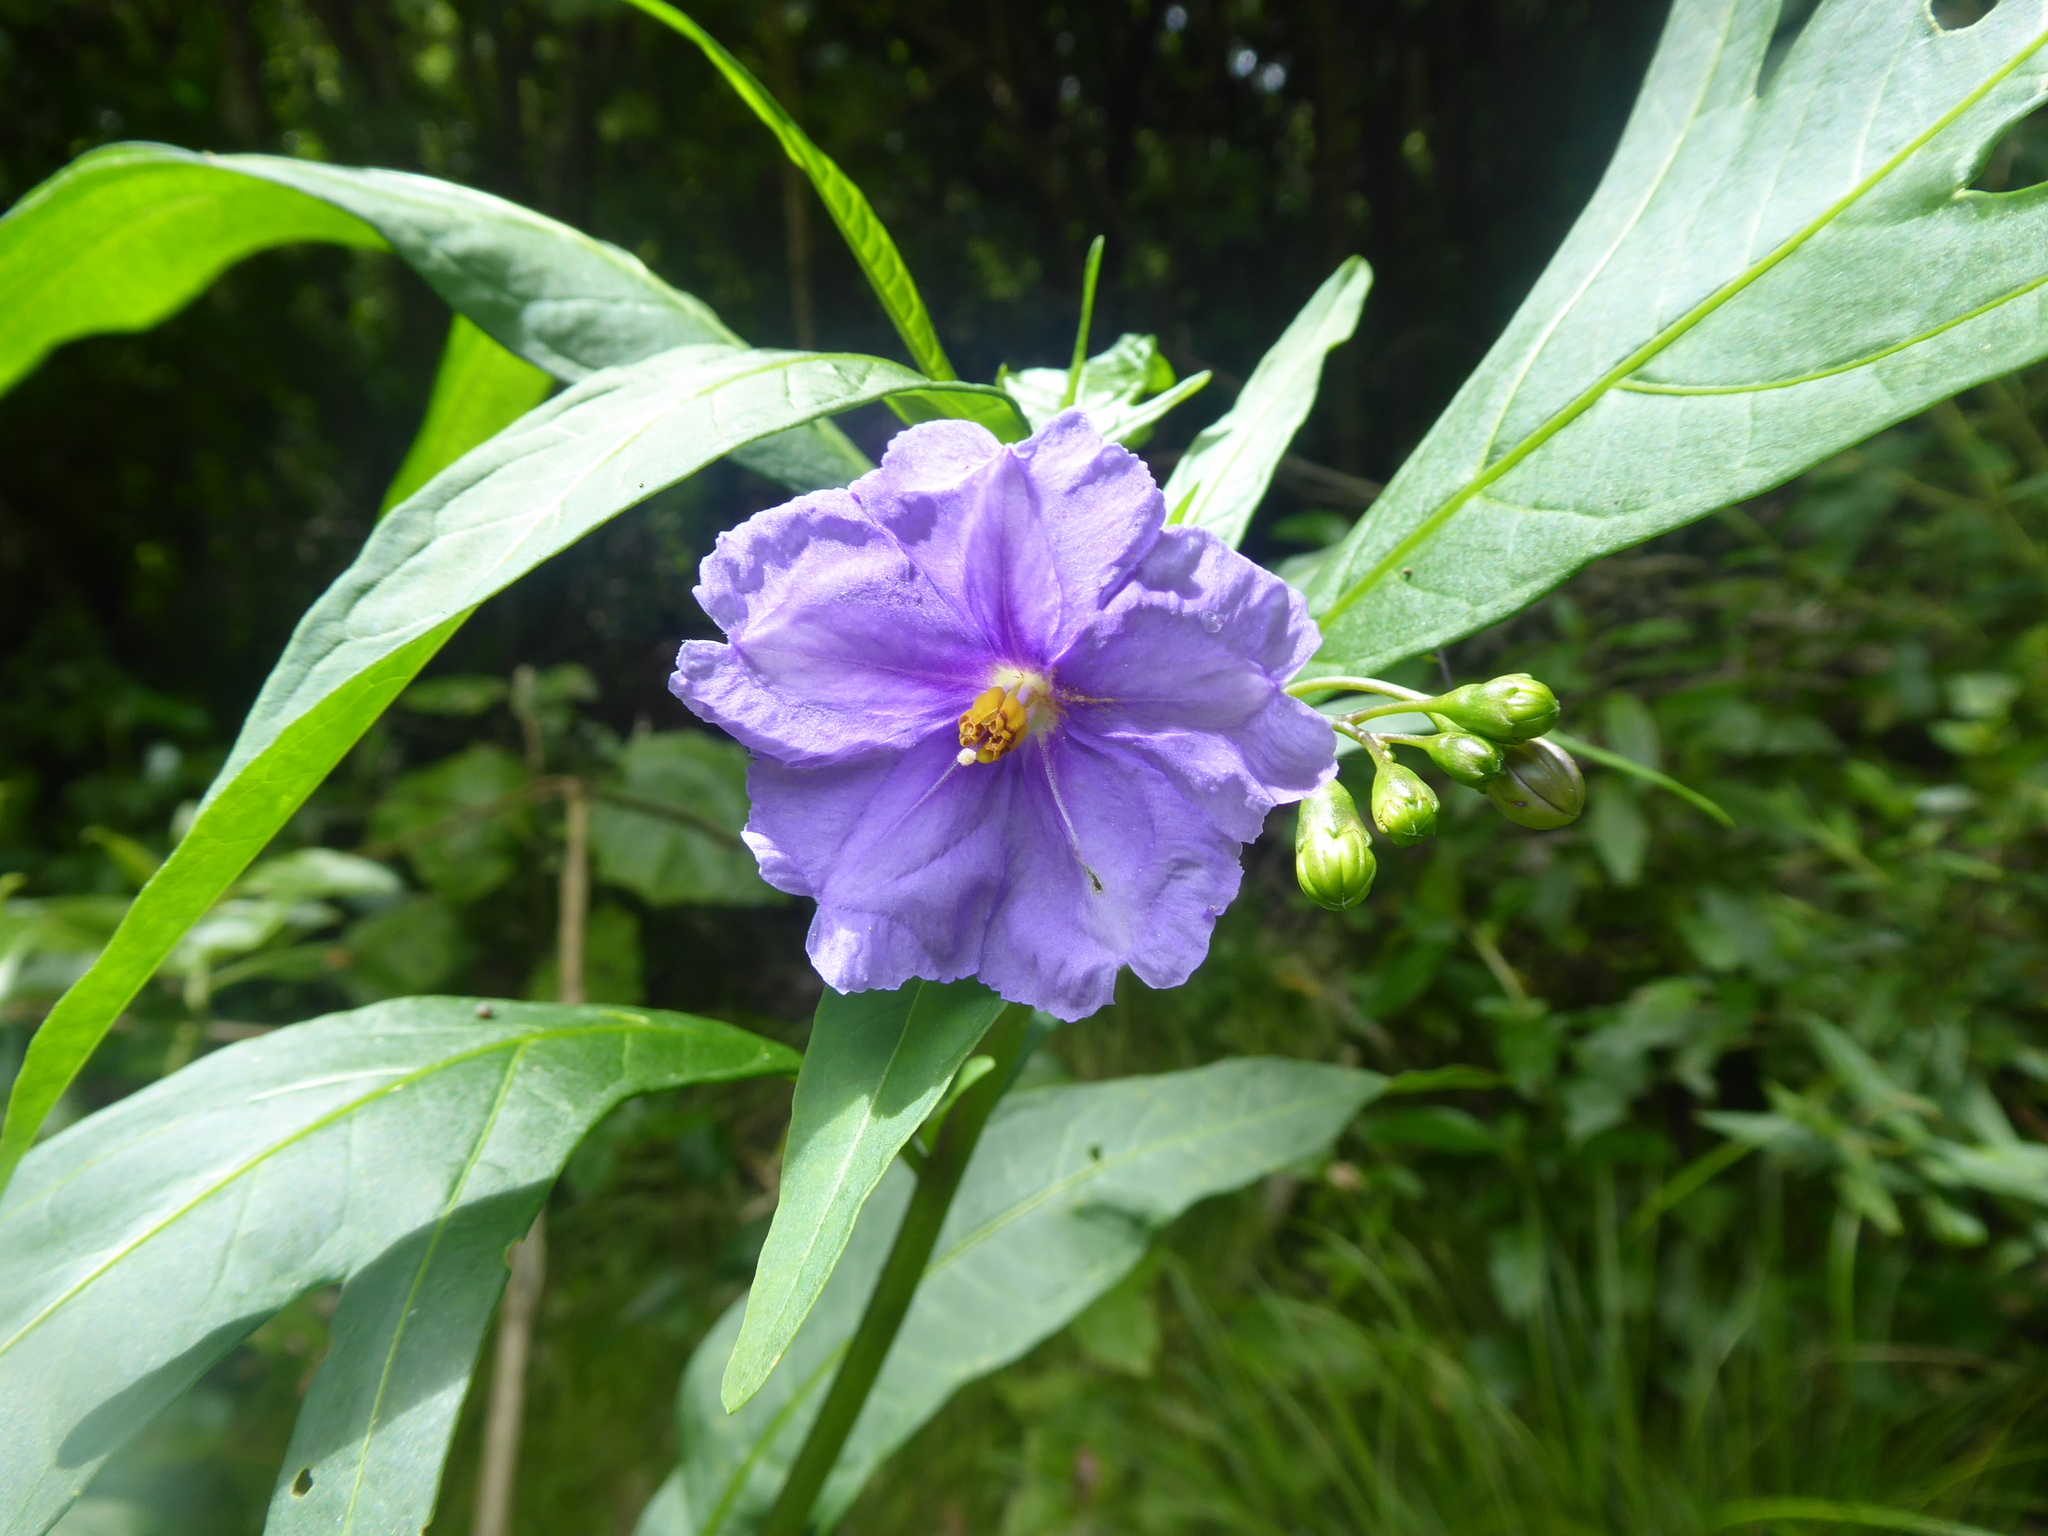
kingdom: Plantae
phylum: Tracheophyta
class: Magnoliopsida
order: Solanales
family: Solanaceae
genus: Solanum
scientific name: Solanum laciniatum
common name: Kangaroo-apple
